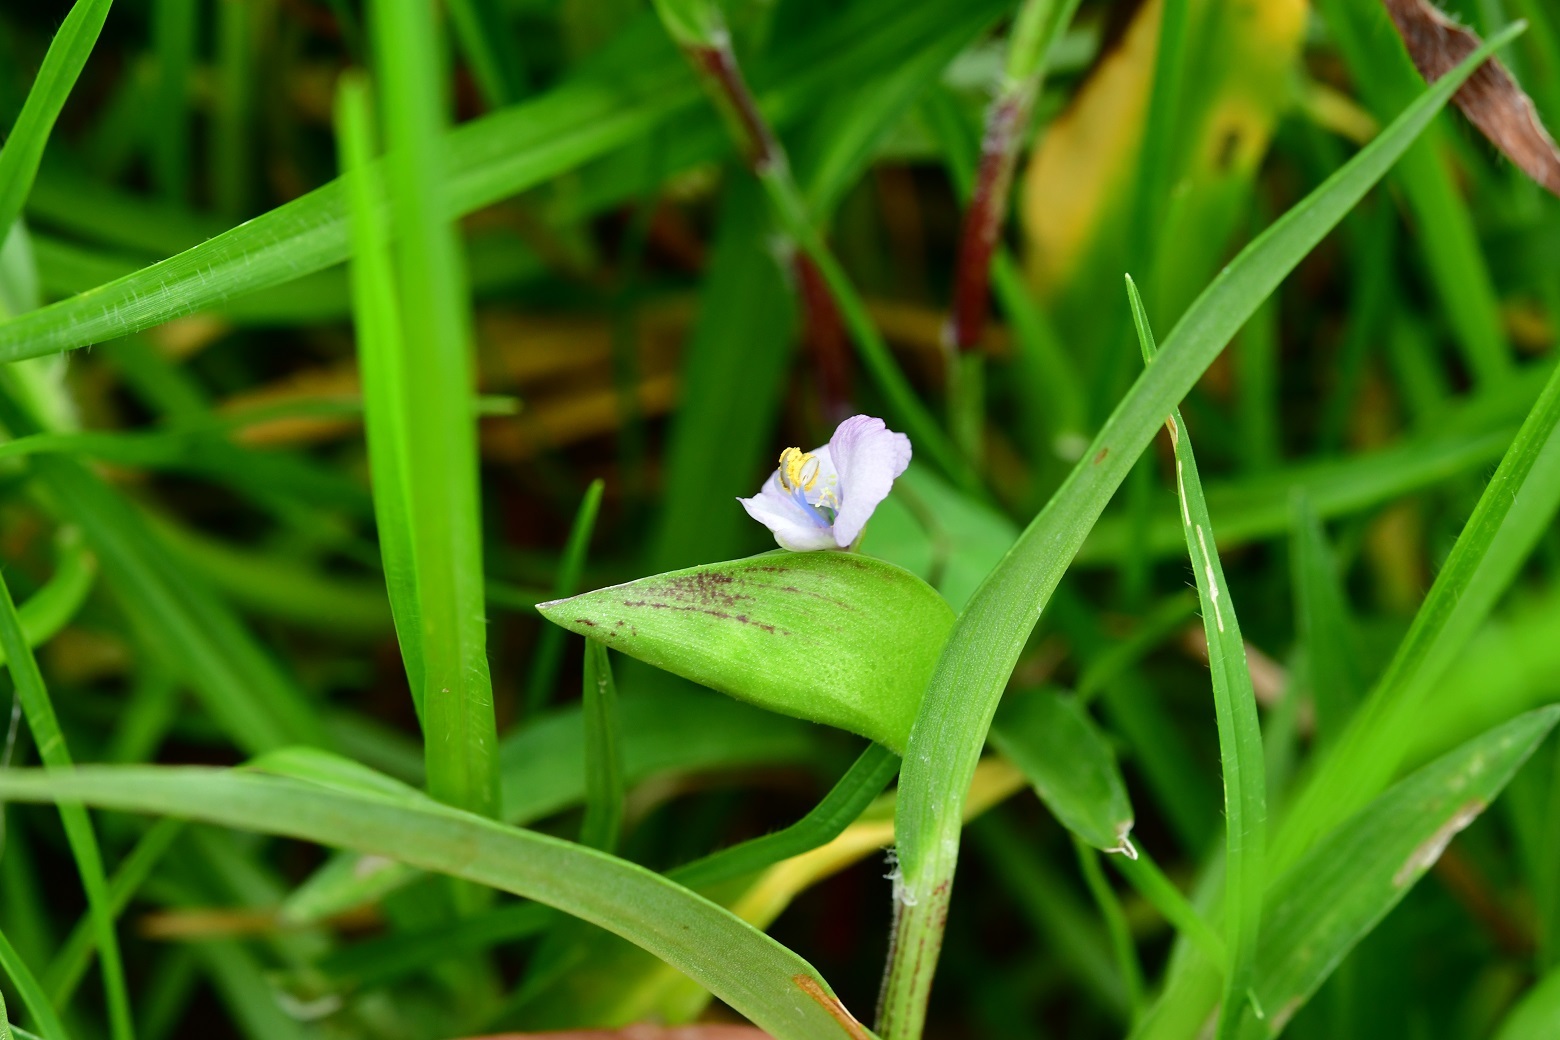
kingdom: Plantae
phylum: Tracheophyta
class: Liliopsida
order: Commelinales
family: Commelinaceae
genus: Commelina
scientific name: Commelina tuberosa
